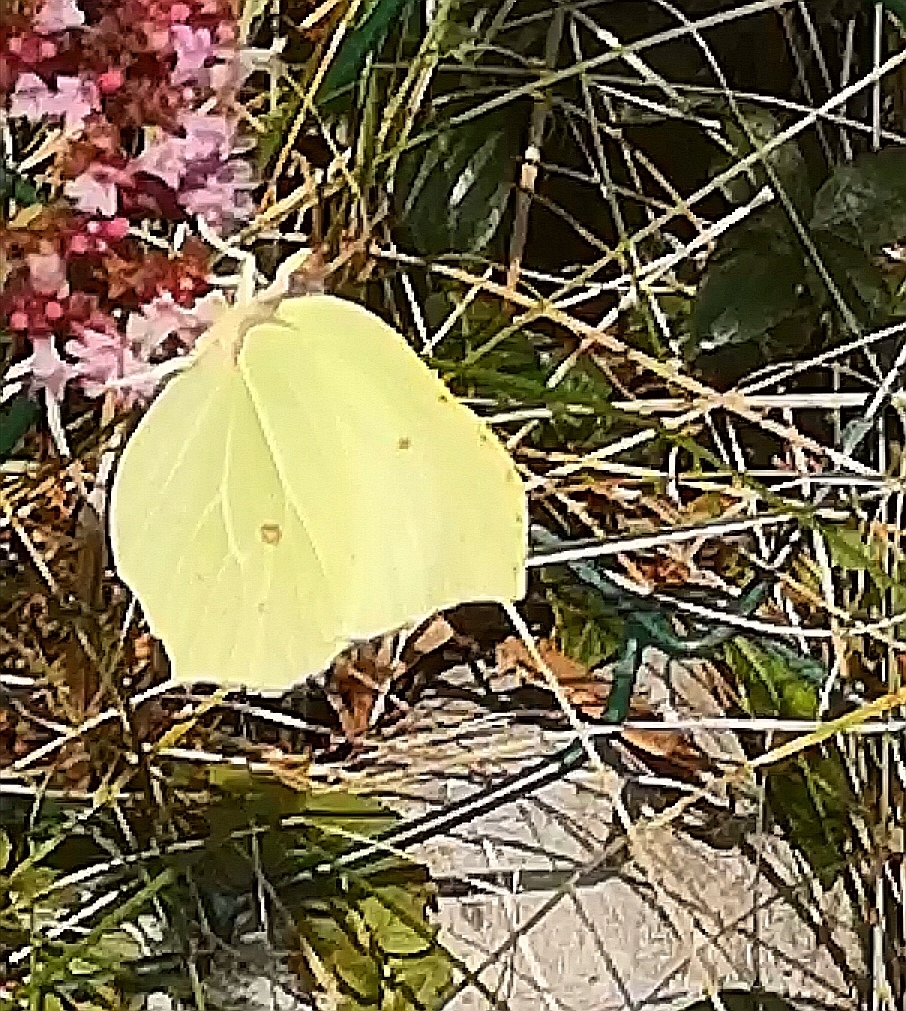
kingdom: Animalia
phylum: Arthropoda
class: Insecta
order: Lepidoptera
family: Pieridae
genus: Gonepteryx
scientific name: Gonepteryx rhamni
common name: Brimstone
